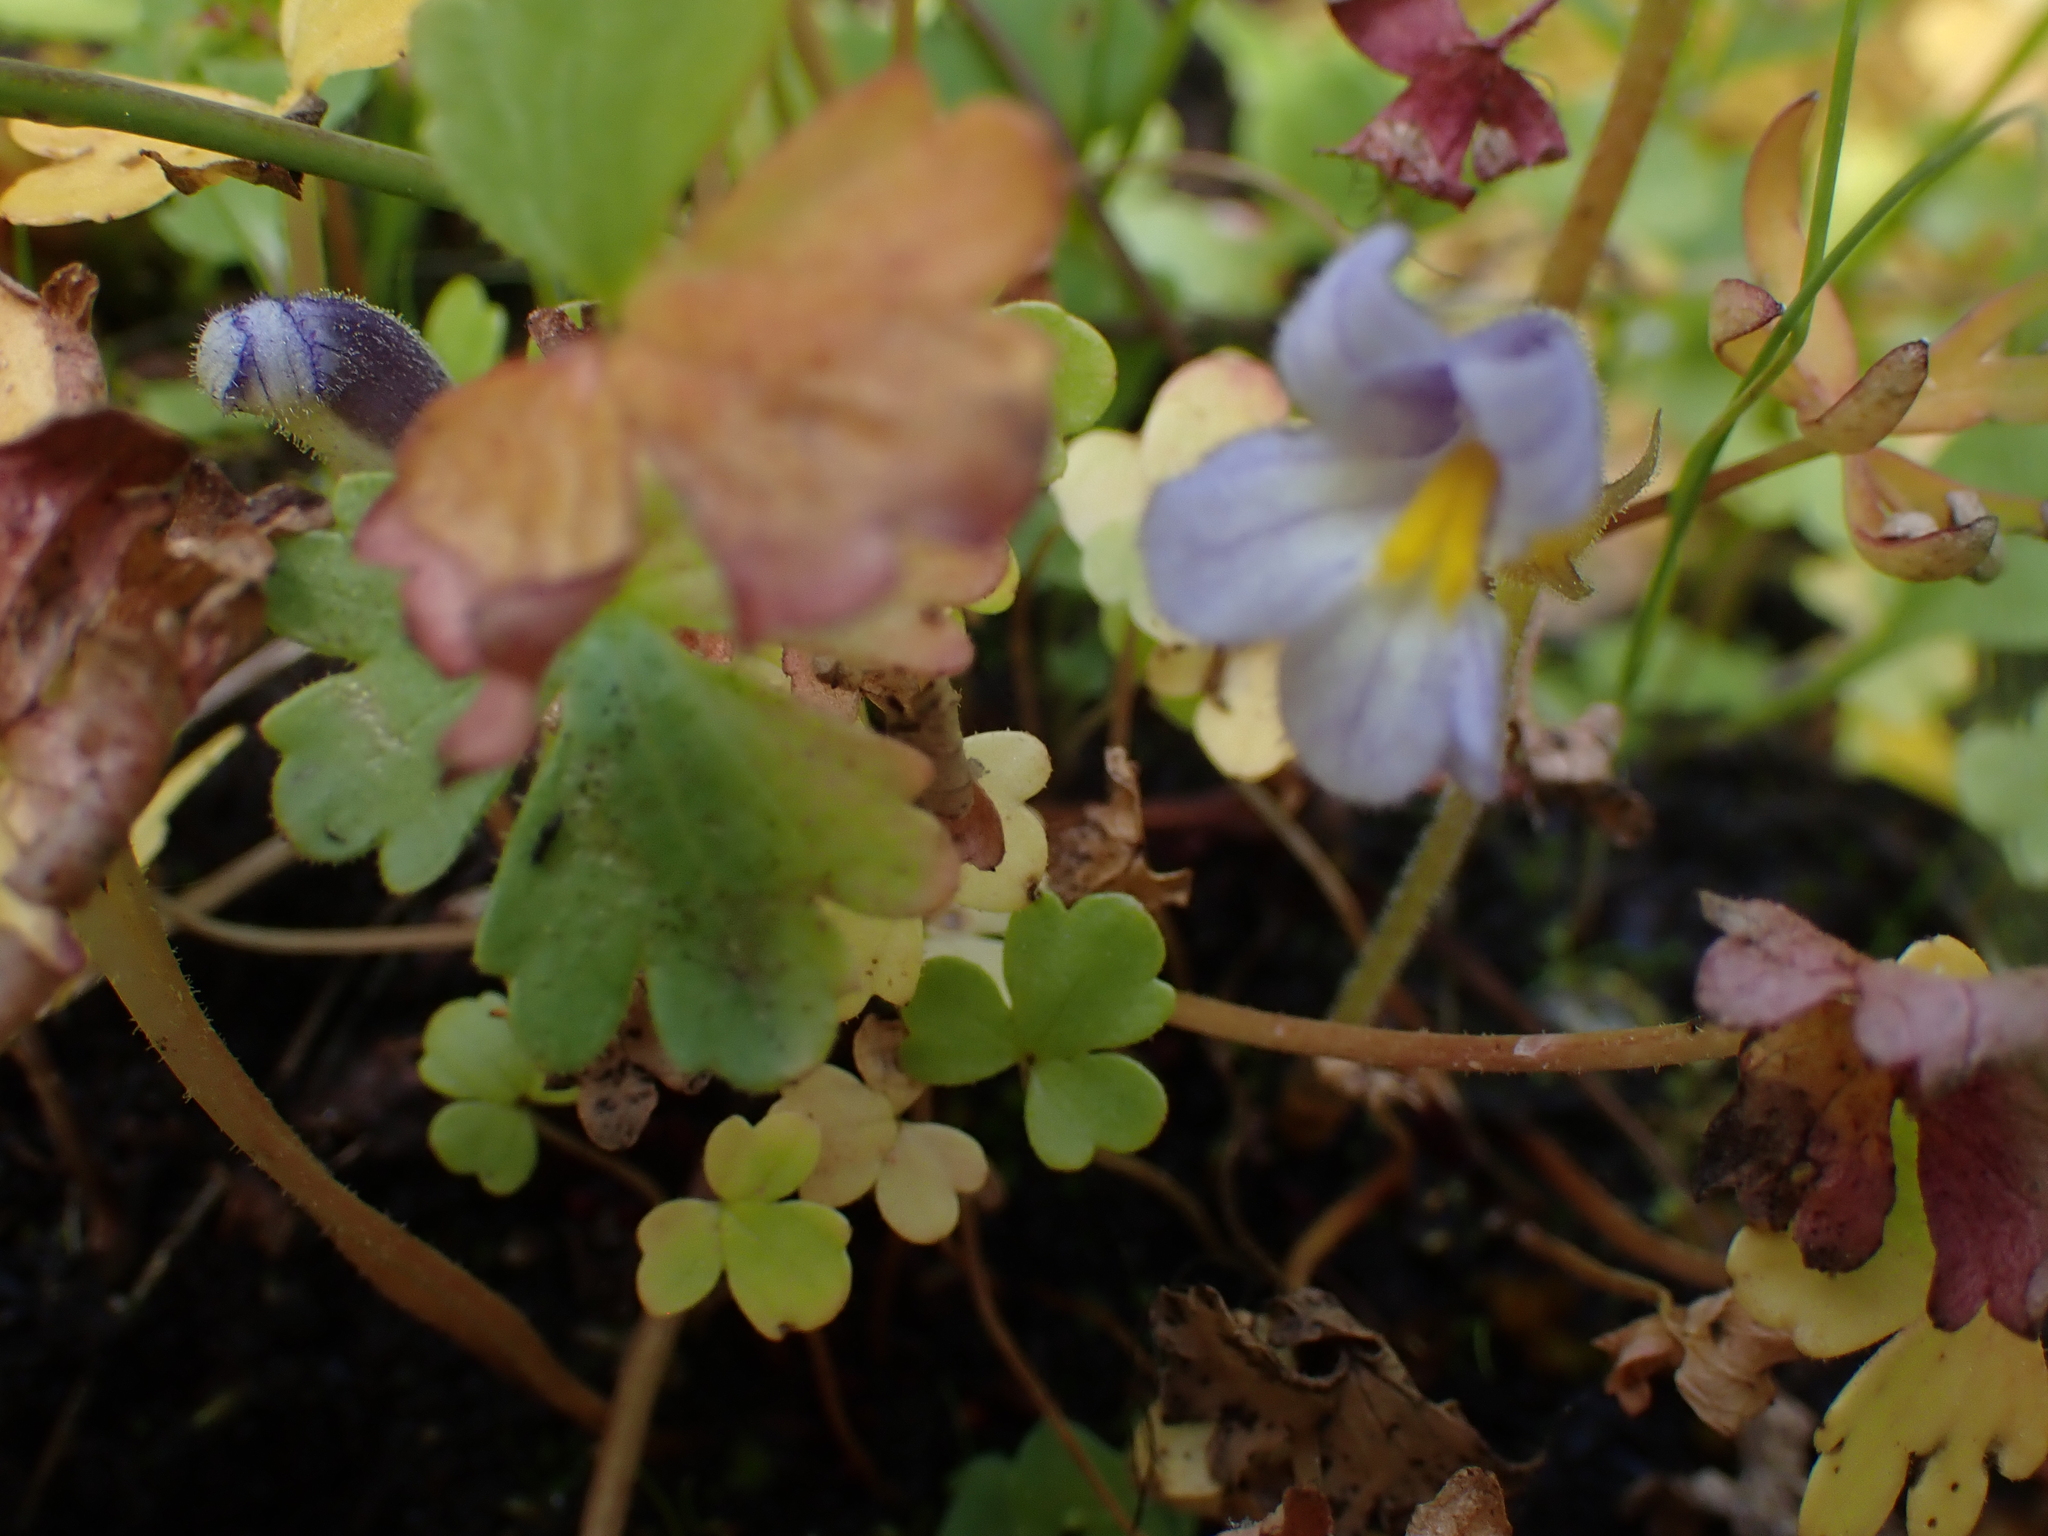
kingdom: Plantae
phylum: Tracheophyta
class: Magnoliopsida
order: Lamiales
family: Orobanchaceae
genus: Aphyllon
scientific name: Aphyllon uniflorum
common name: One-flowered broomrape
